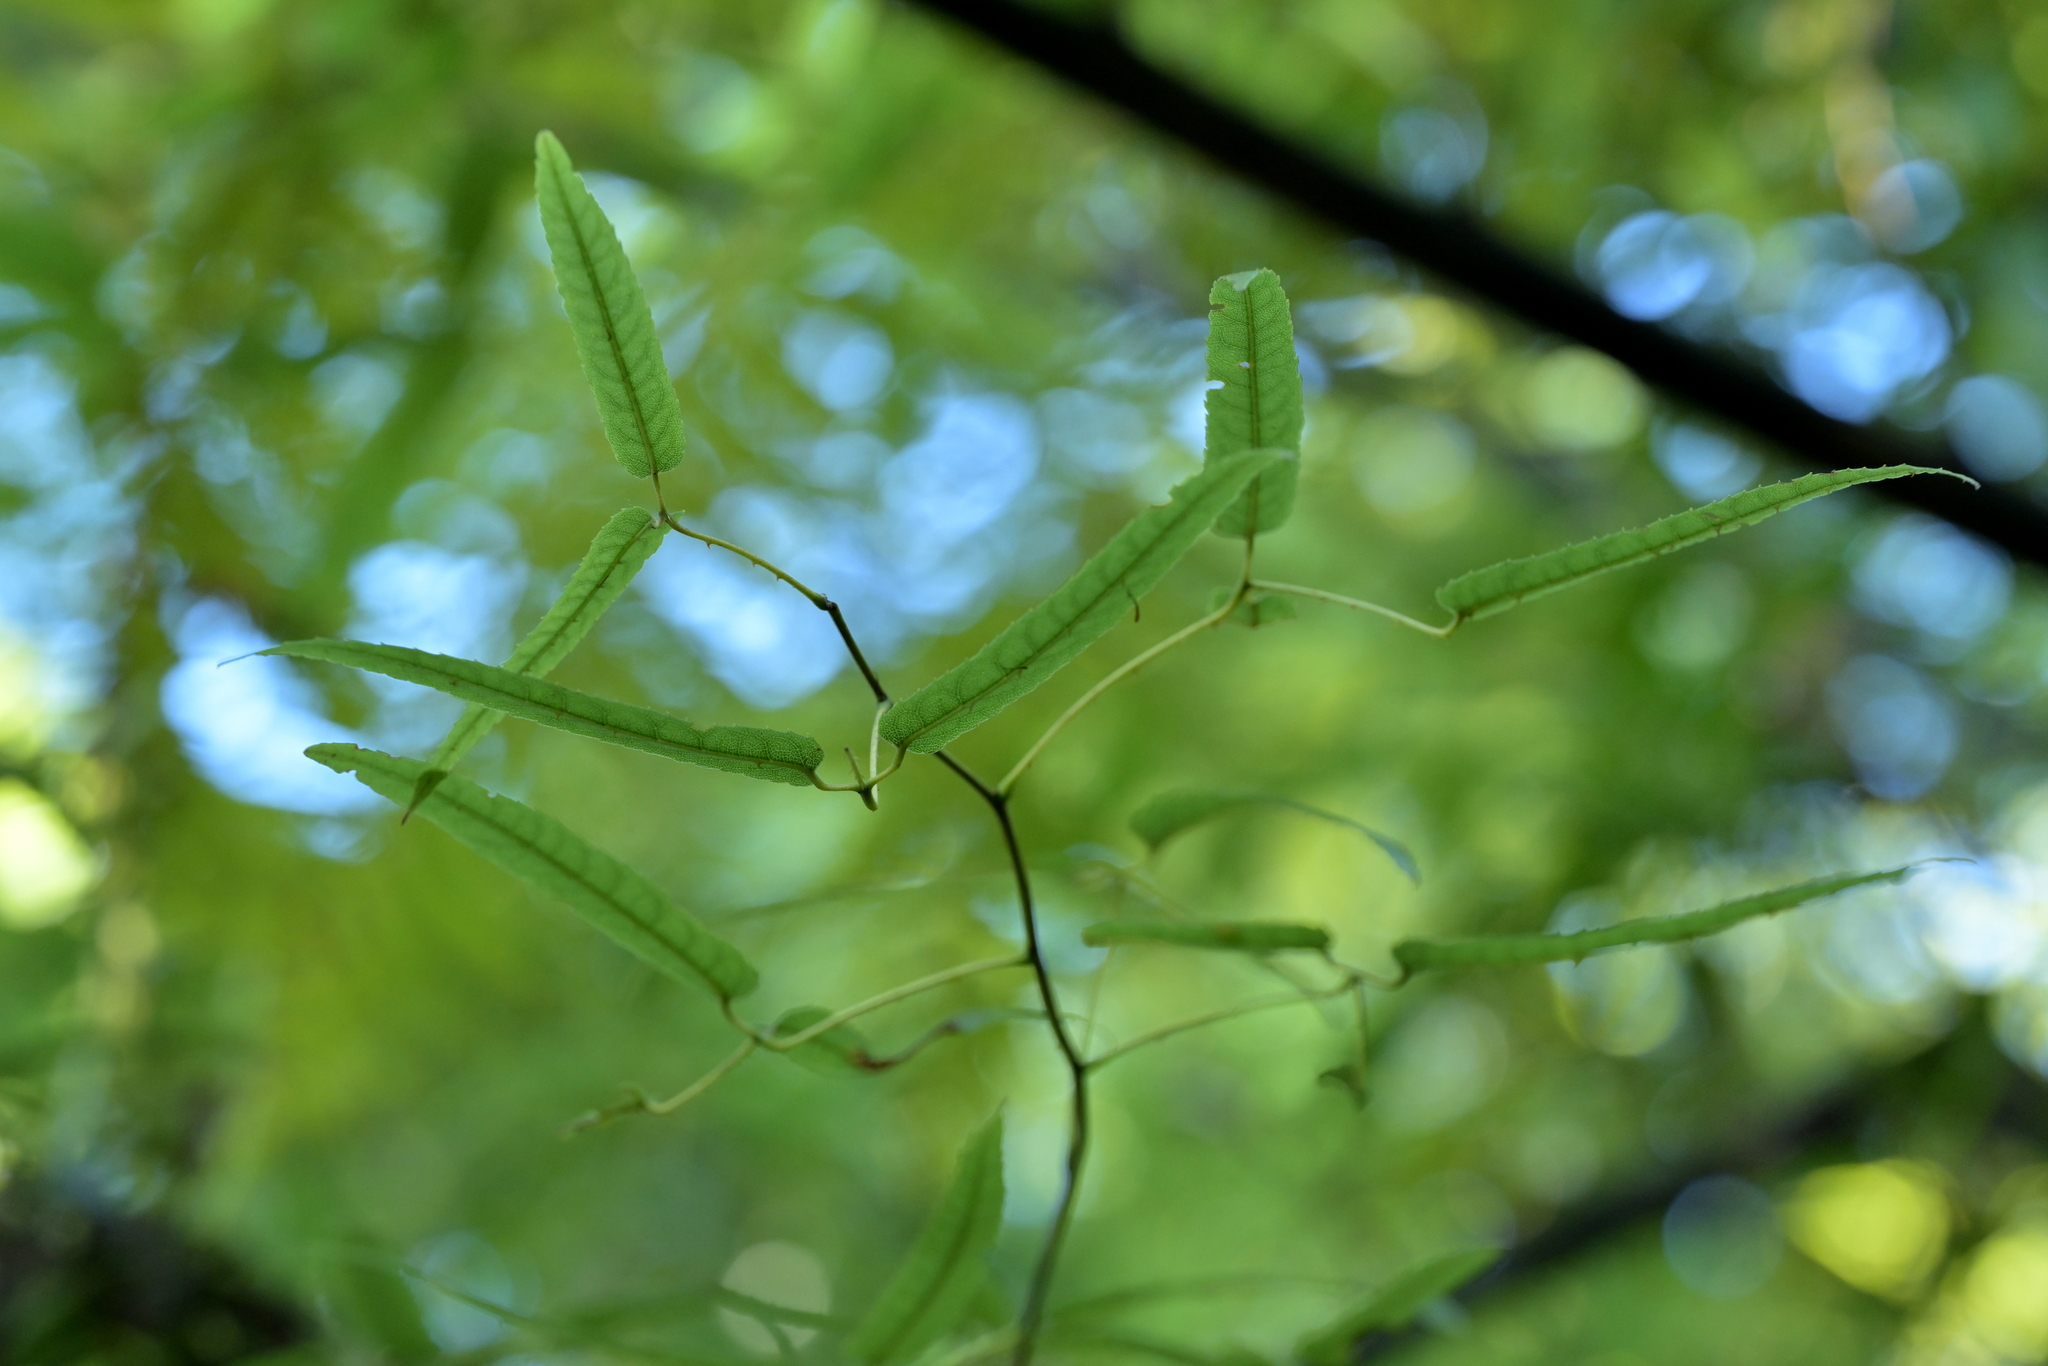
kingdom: Plantae
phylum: Tracheophyta
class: Magnoliopsida
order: Rosales
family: Rosaceae
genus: Rubus
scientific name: Rubus cissoides
